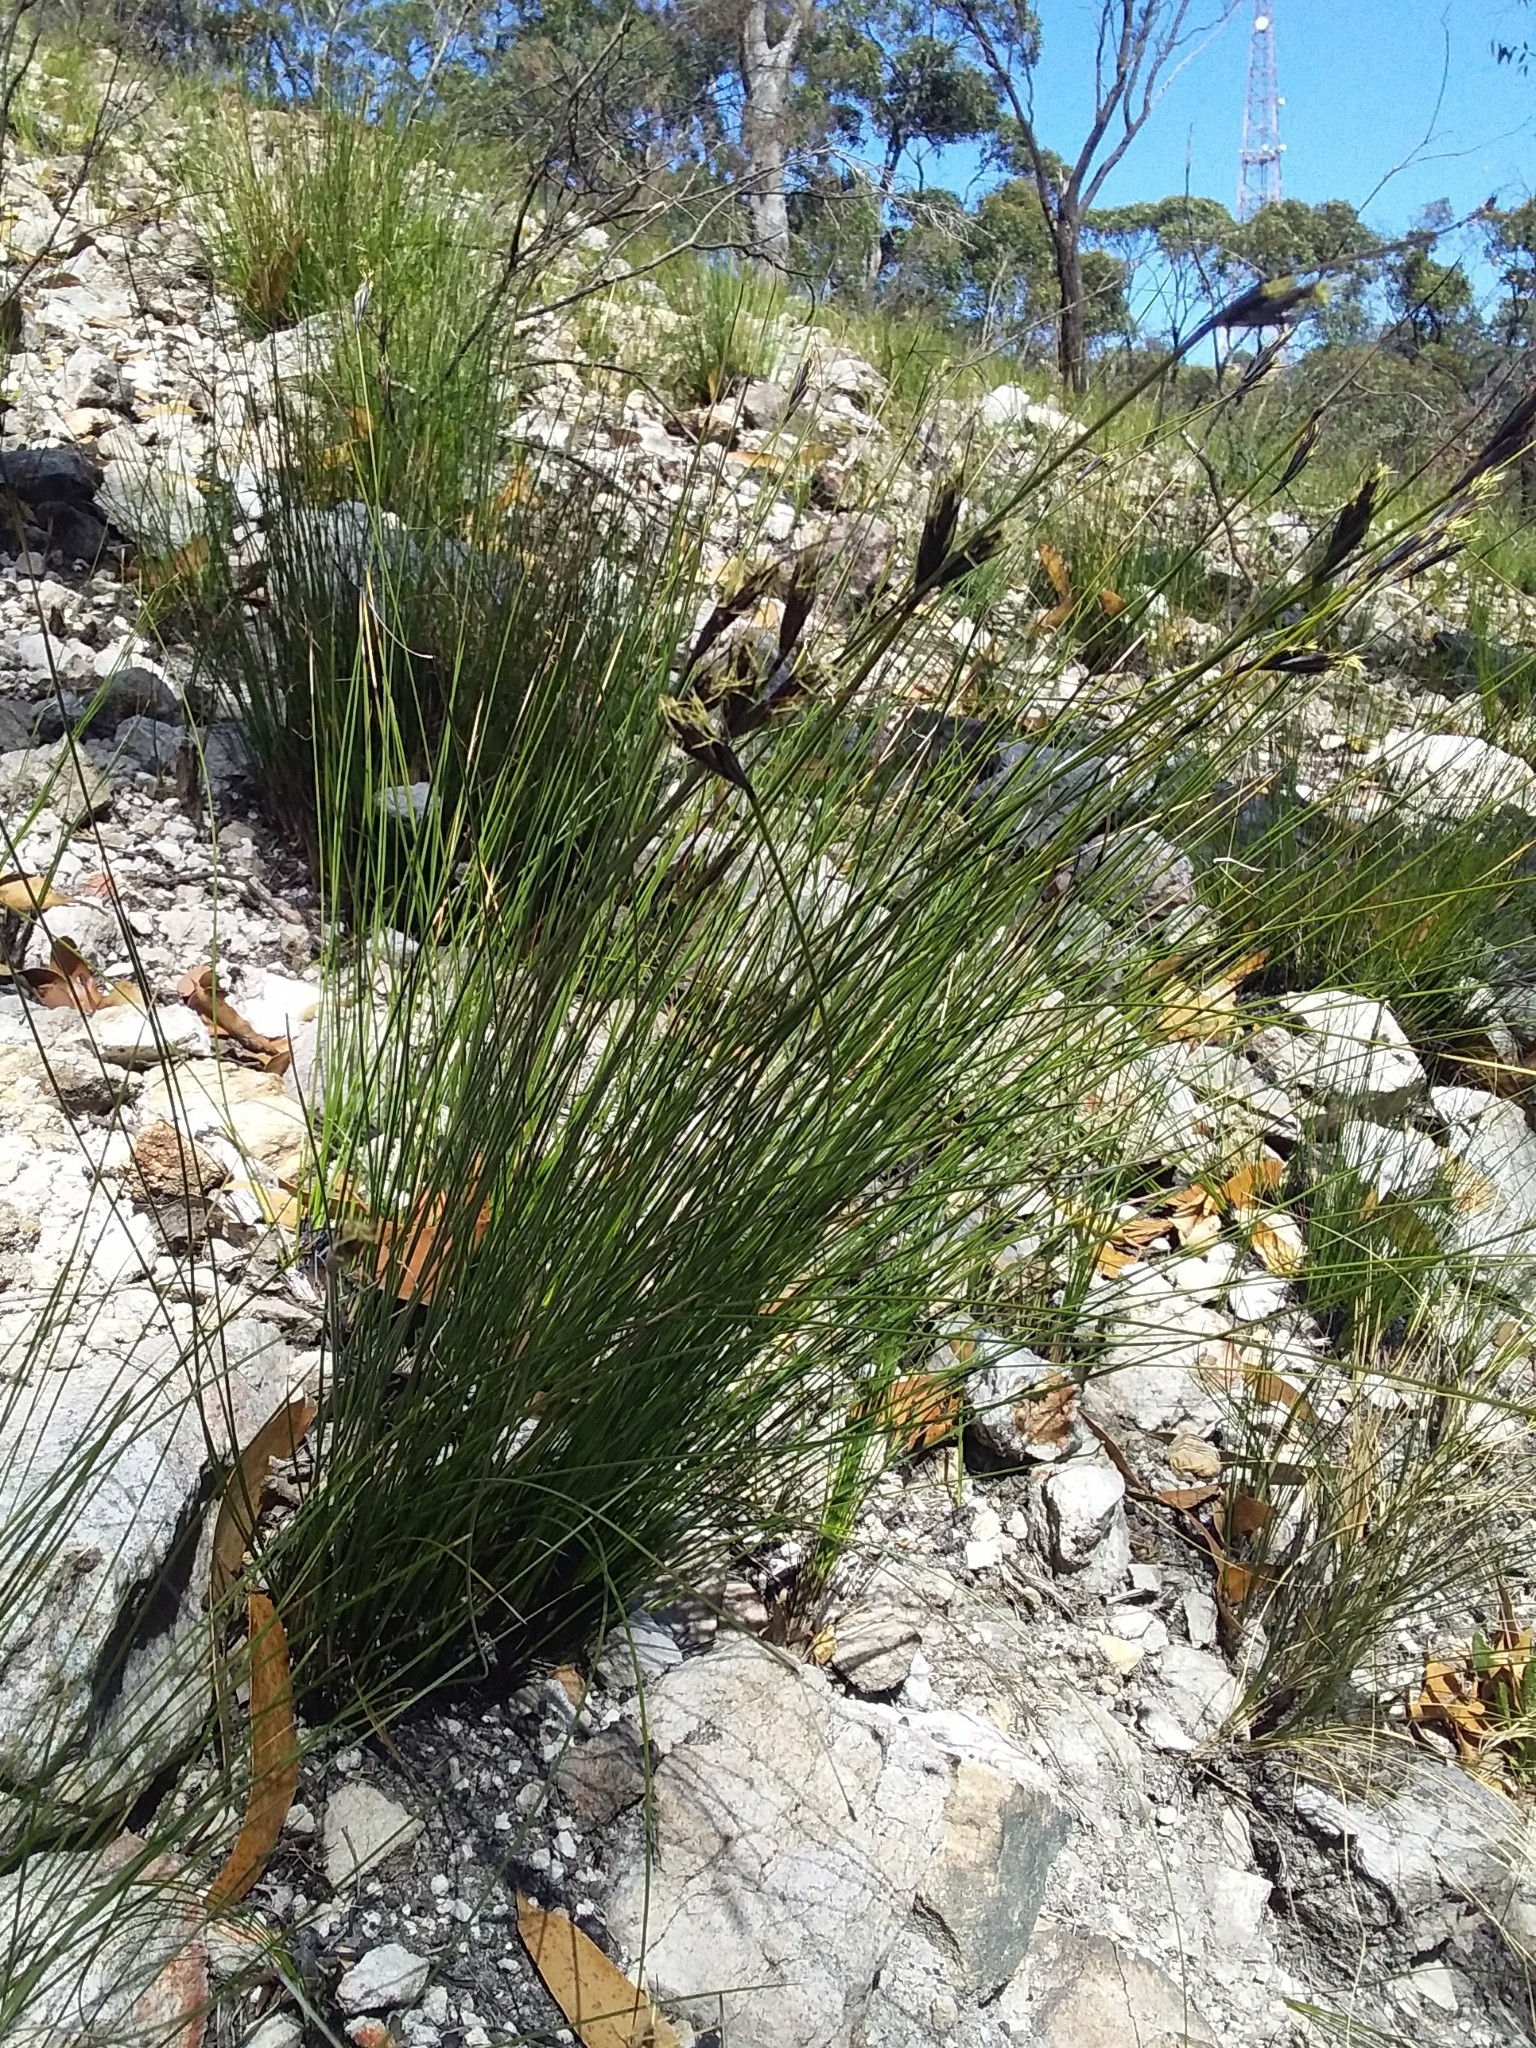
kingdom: Plantae
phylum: Tracheophyta
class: Liliopsida
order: Poales
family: Cyperaceae
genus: Lepidosperma
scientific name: Lepidosperma carphoides
